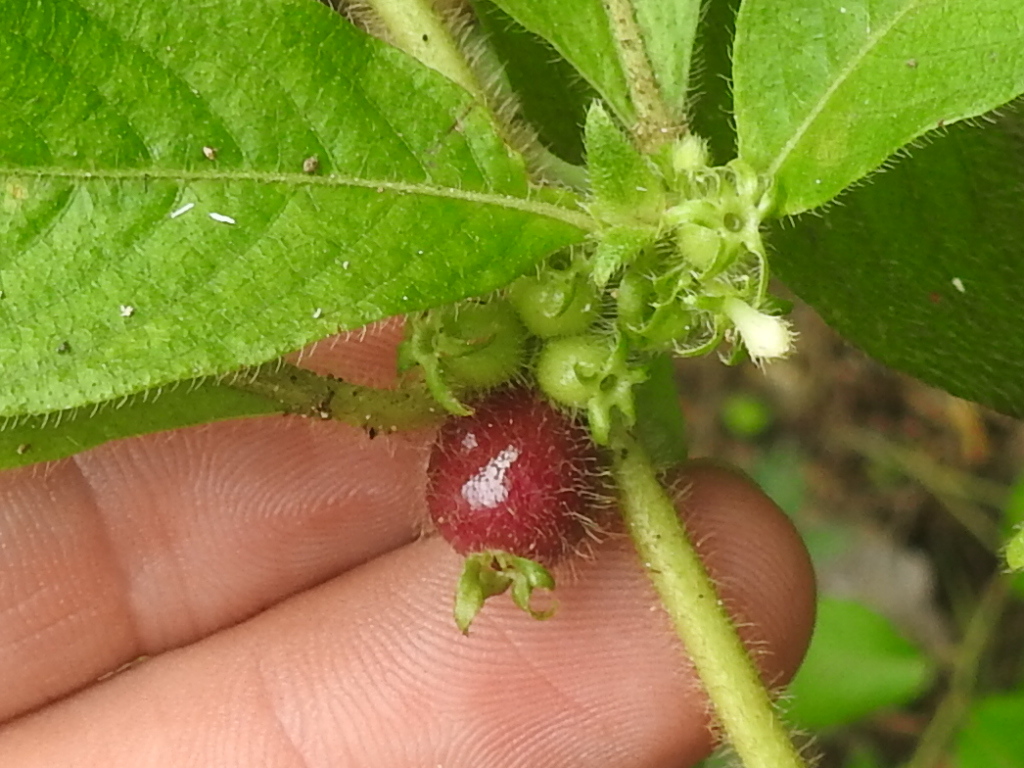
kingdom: Plantae
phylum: Tracheophyta
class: Magnoliopsida
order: Gentianales
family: Rubiaceae
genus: Sabicea
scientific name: Sabicea villosa
